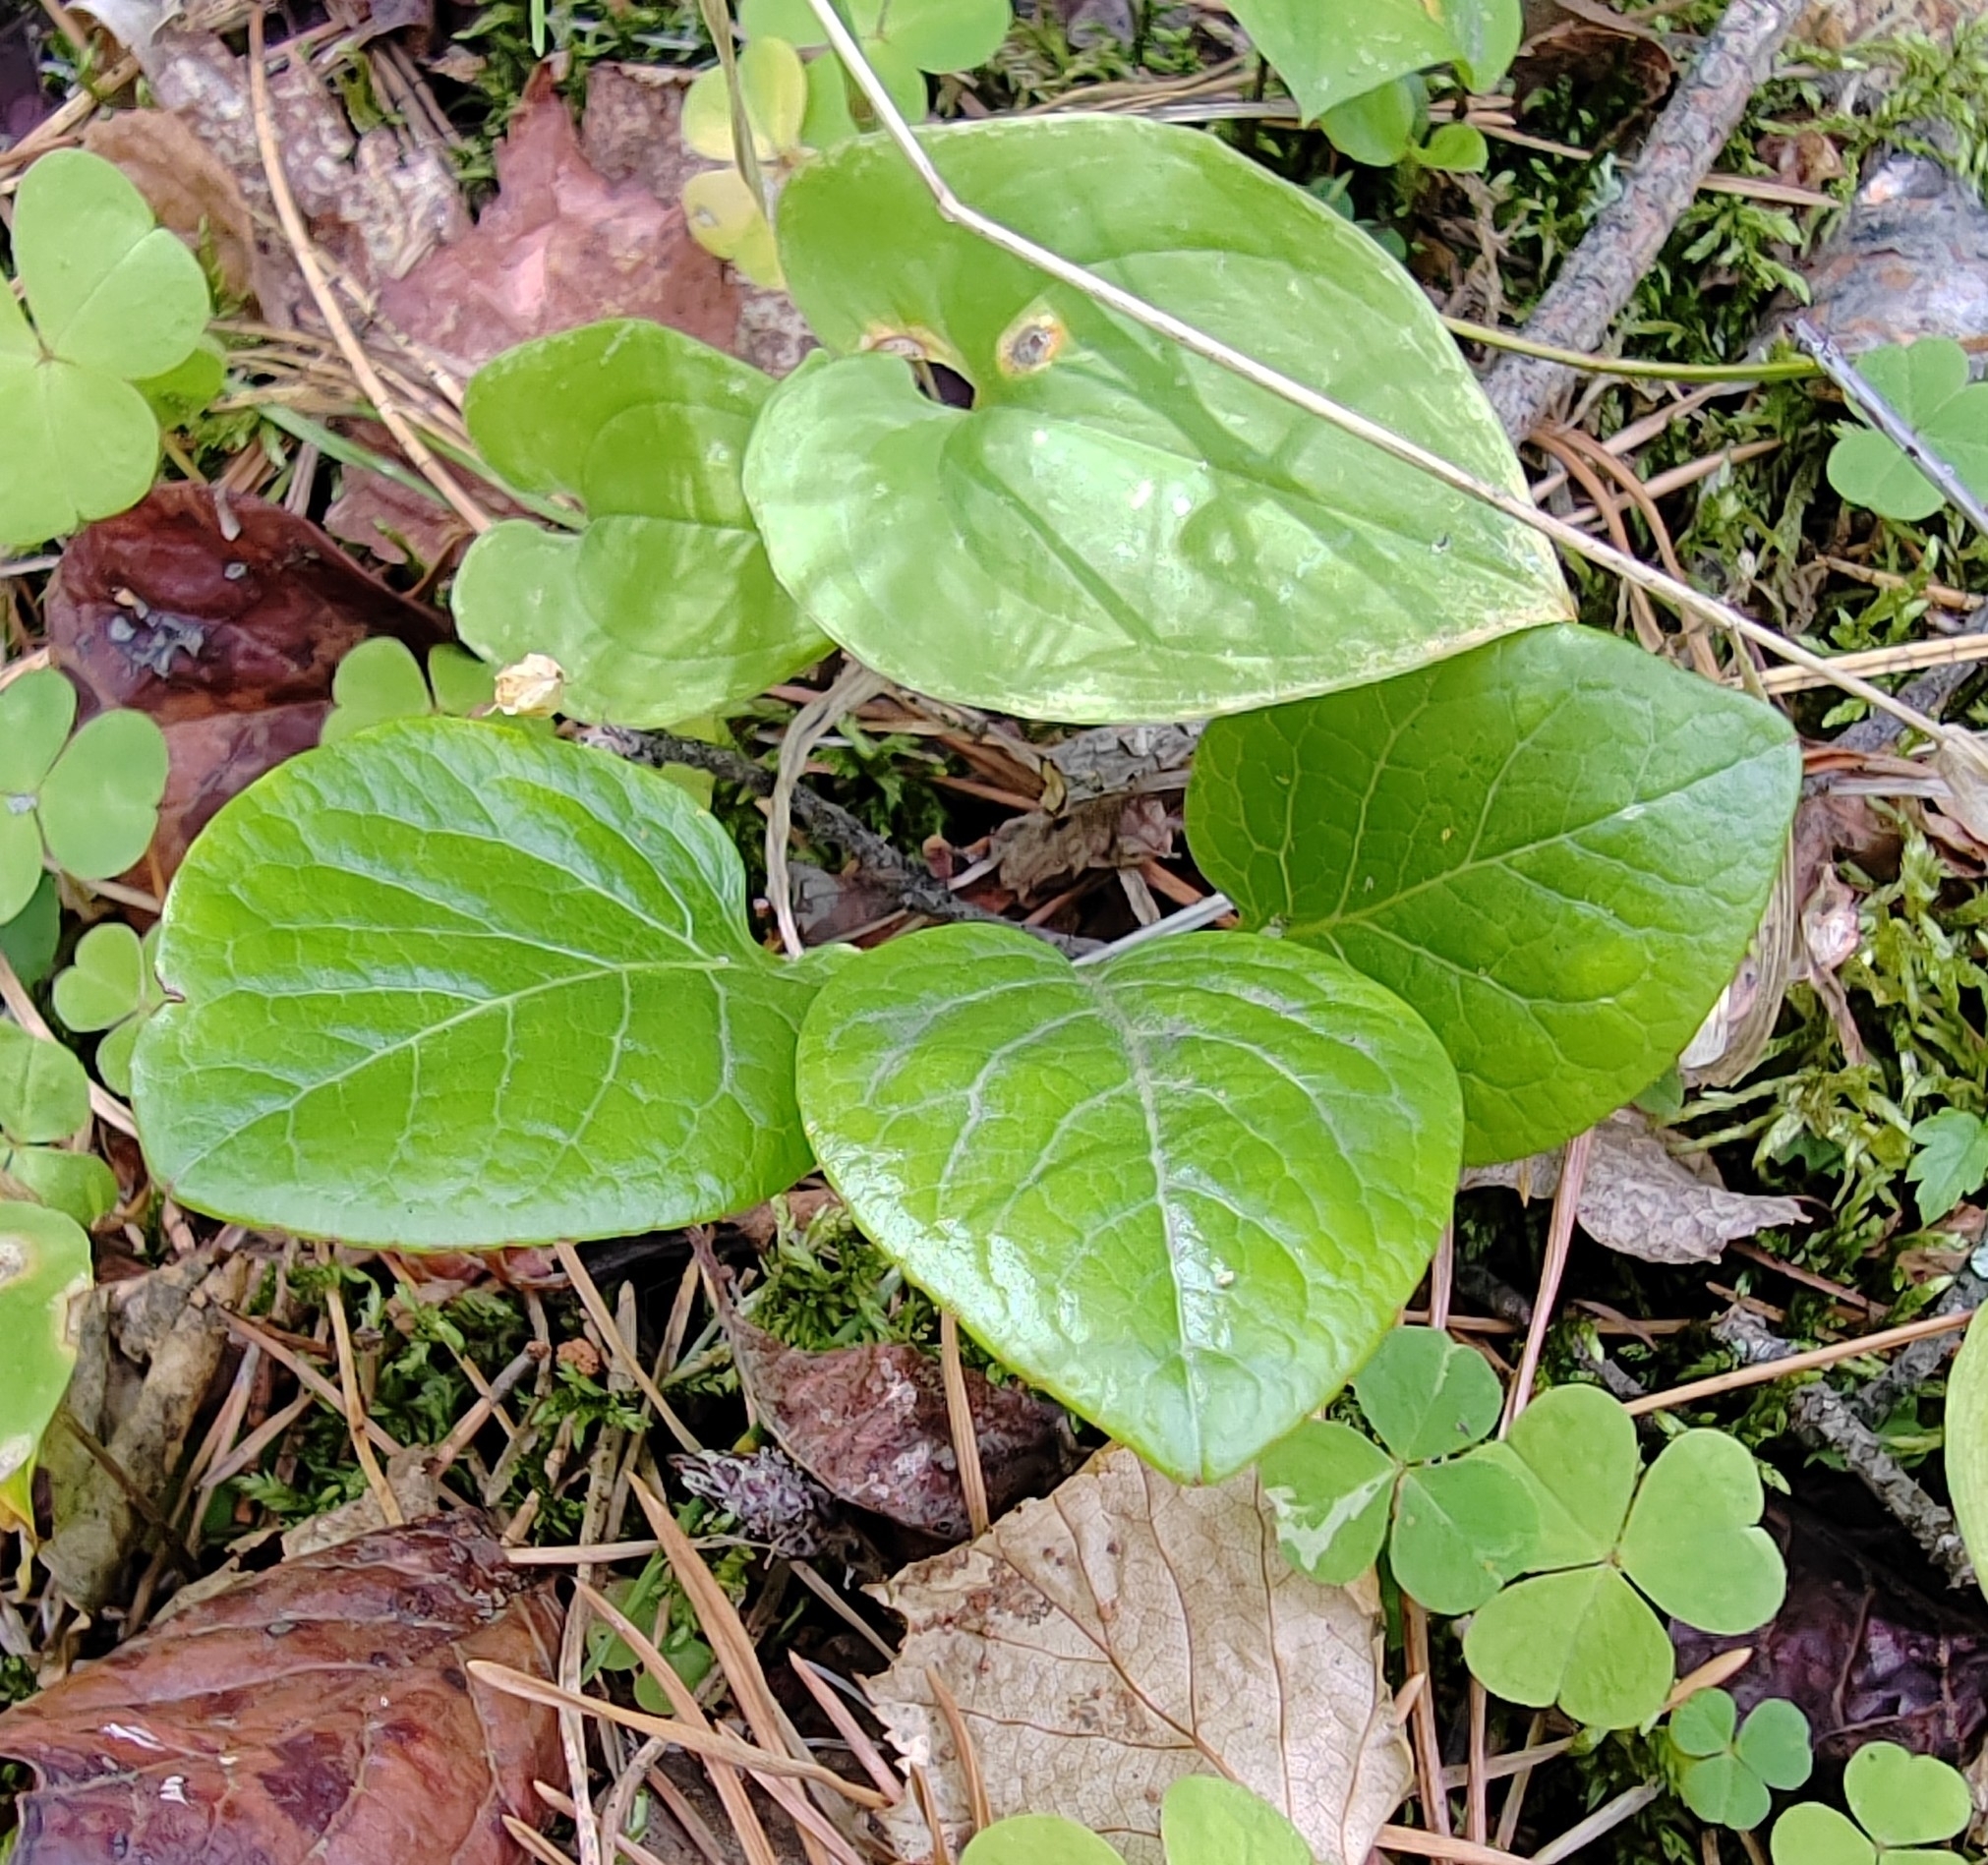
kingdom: Plantae
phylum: Tracheophyta
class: Magnoliopsida
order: Ericales
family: Ericaceae
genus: Pyrola
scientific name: Pyrola
